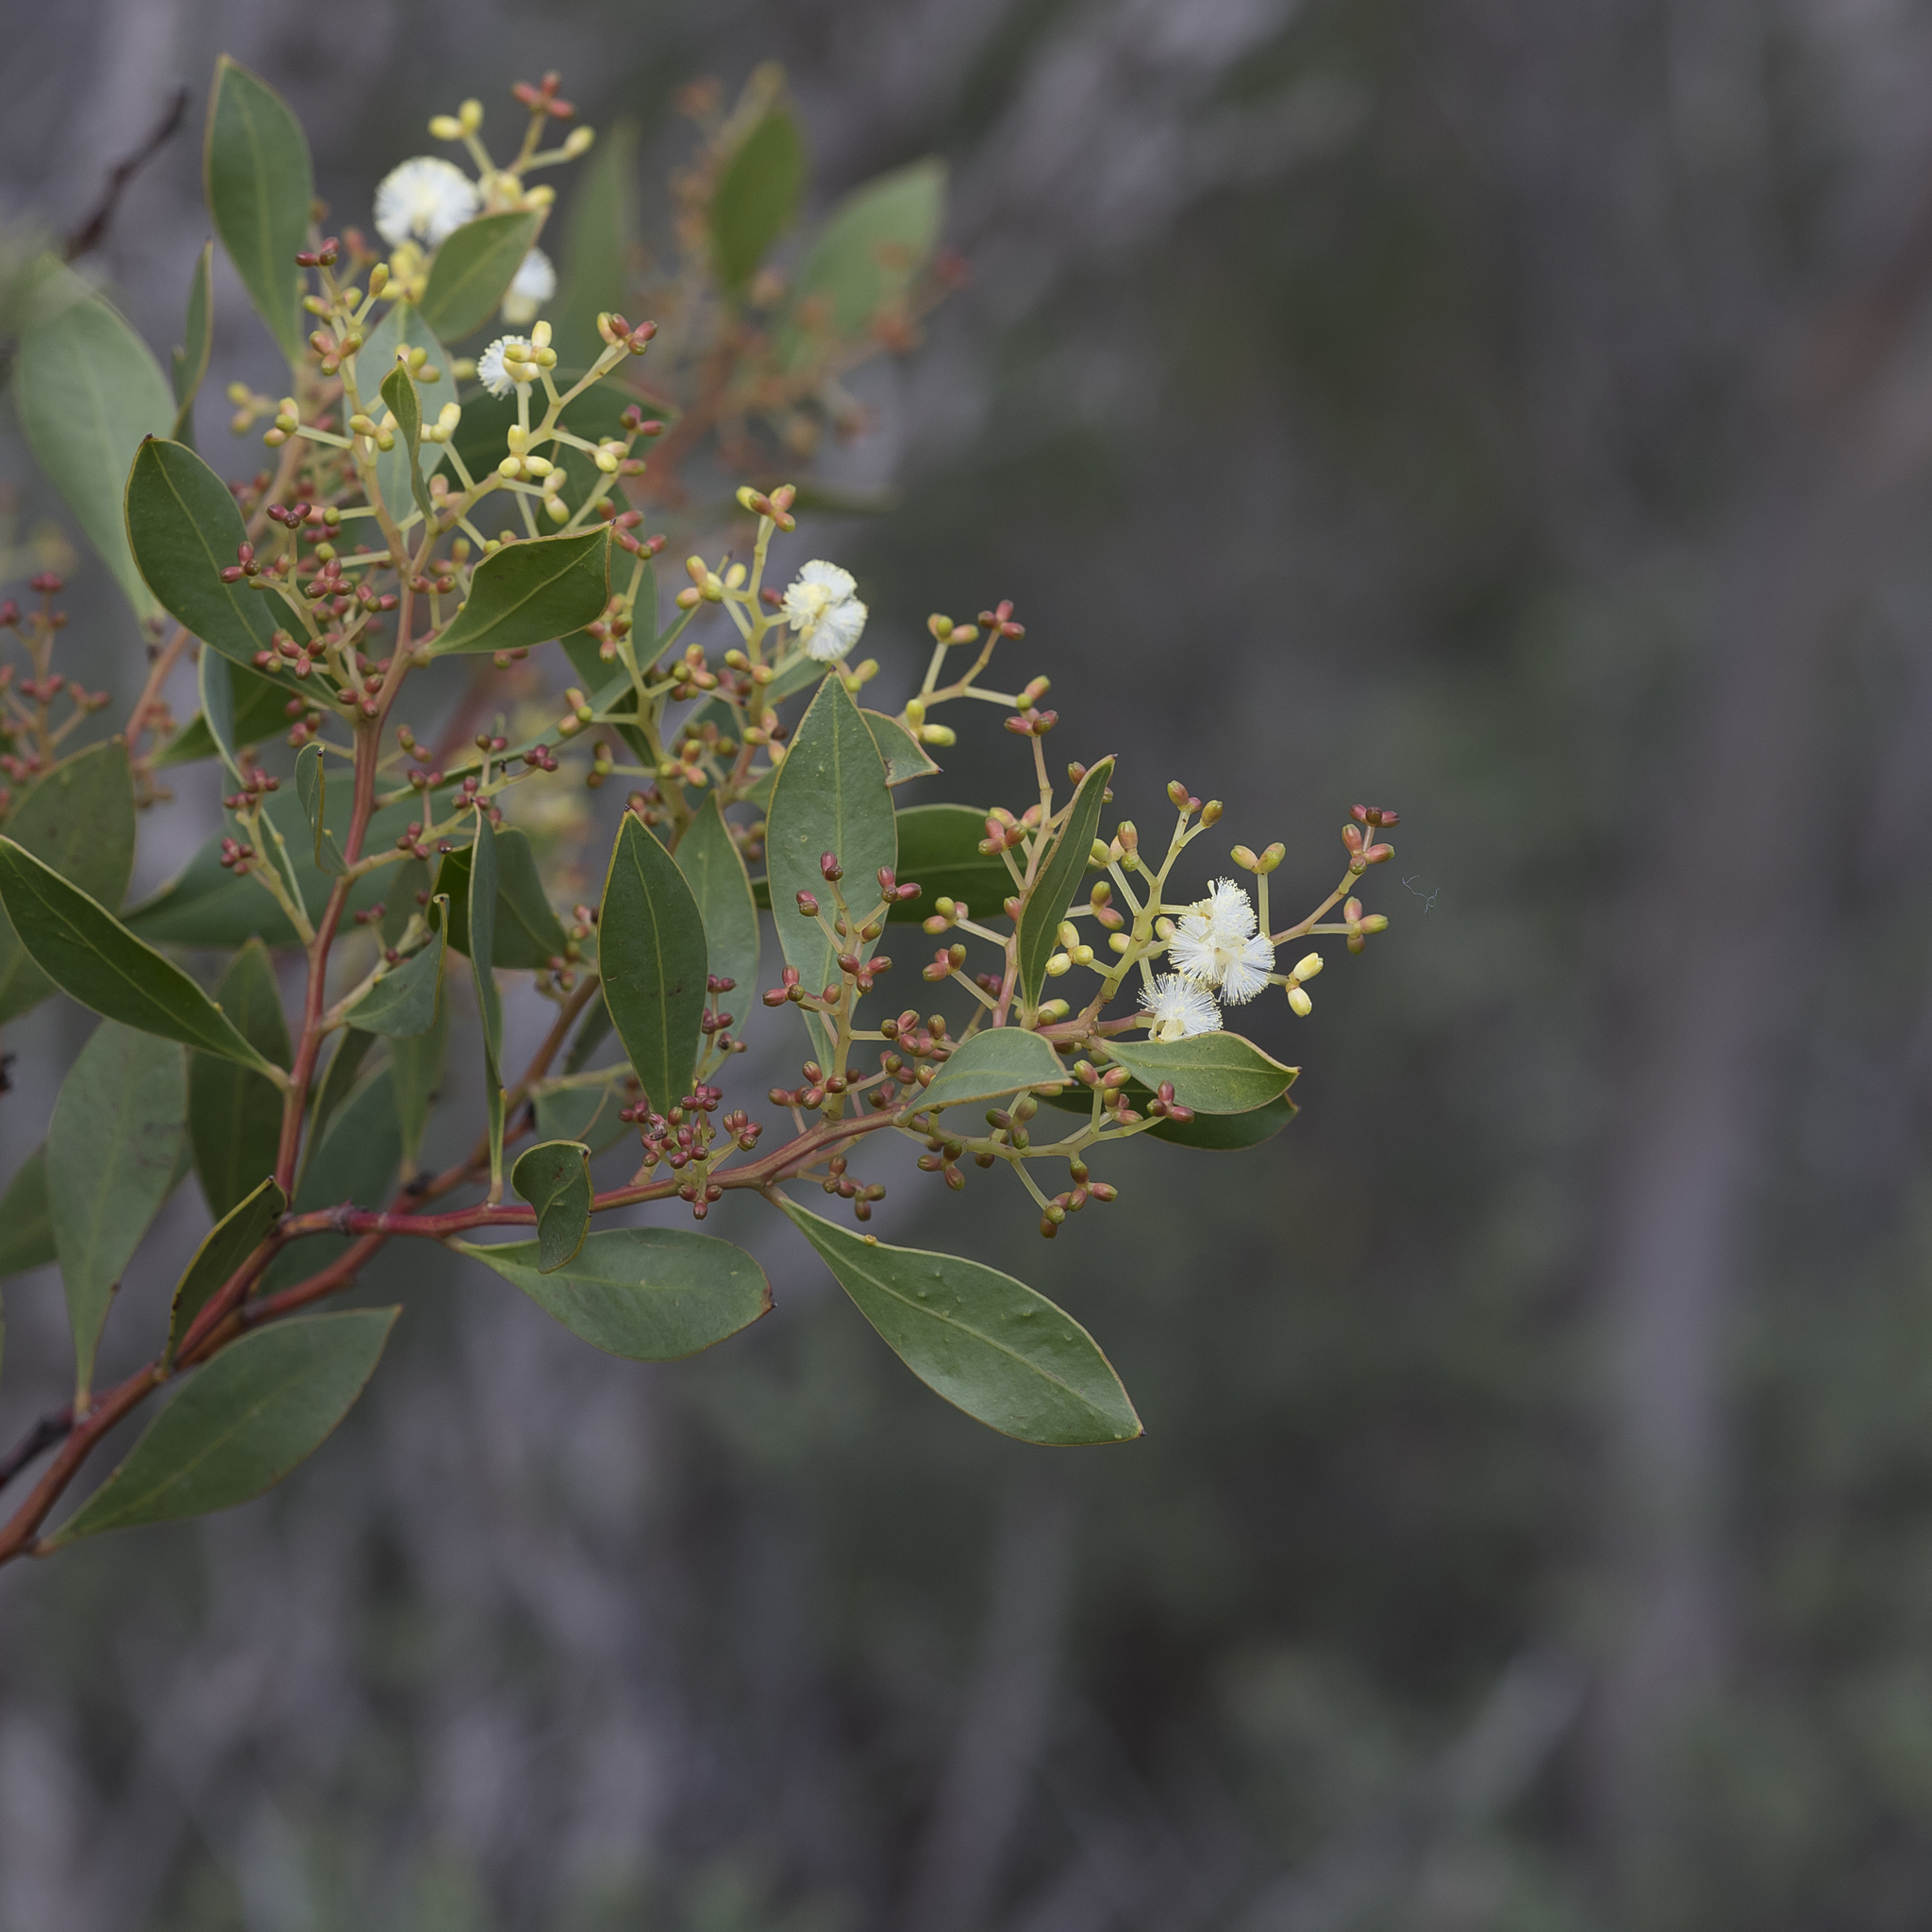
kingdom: Plantae
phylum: Tracheophyta
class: Magnoliopsida
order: Fabales
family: Fabaceae
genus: Acacia
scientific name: Acacia myrtifolia
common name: Myrtle wattle
